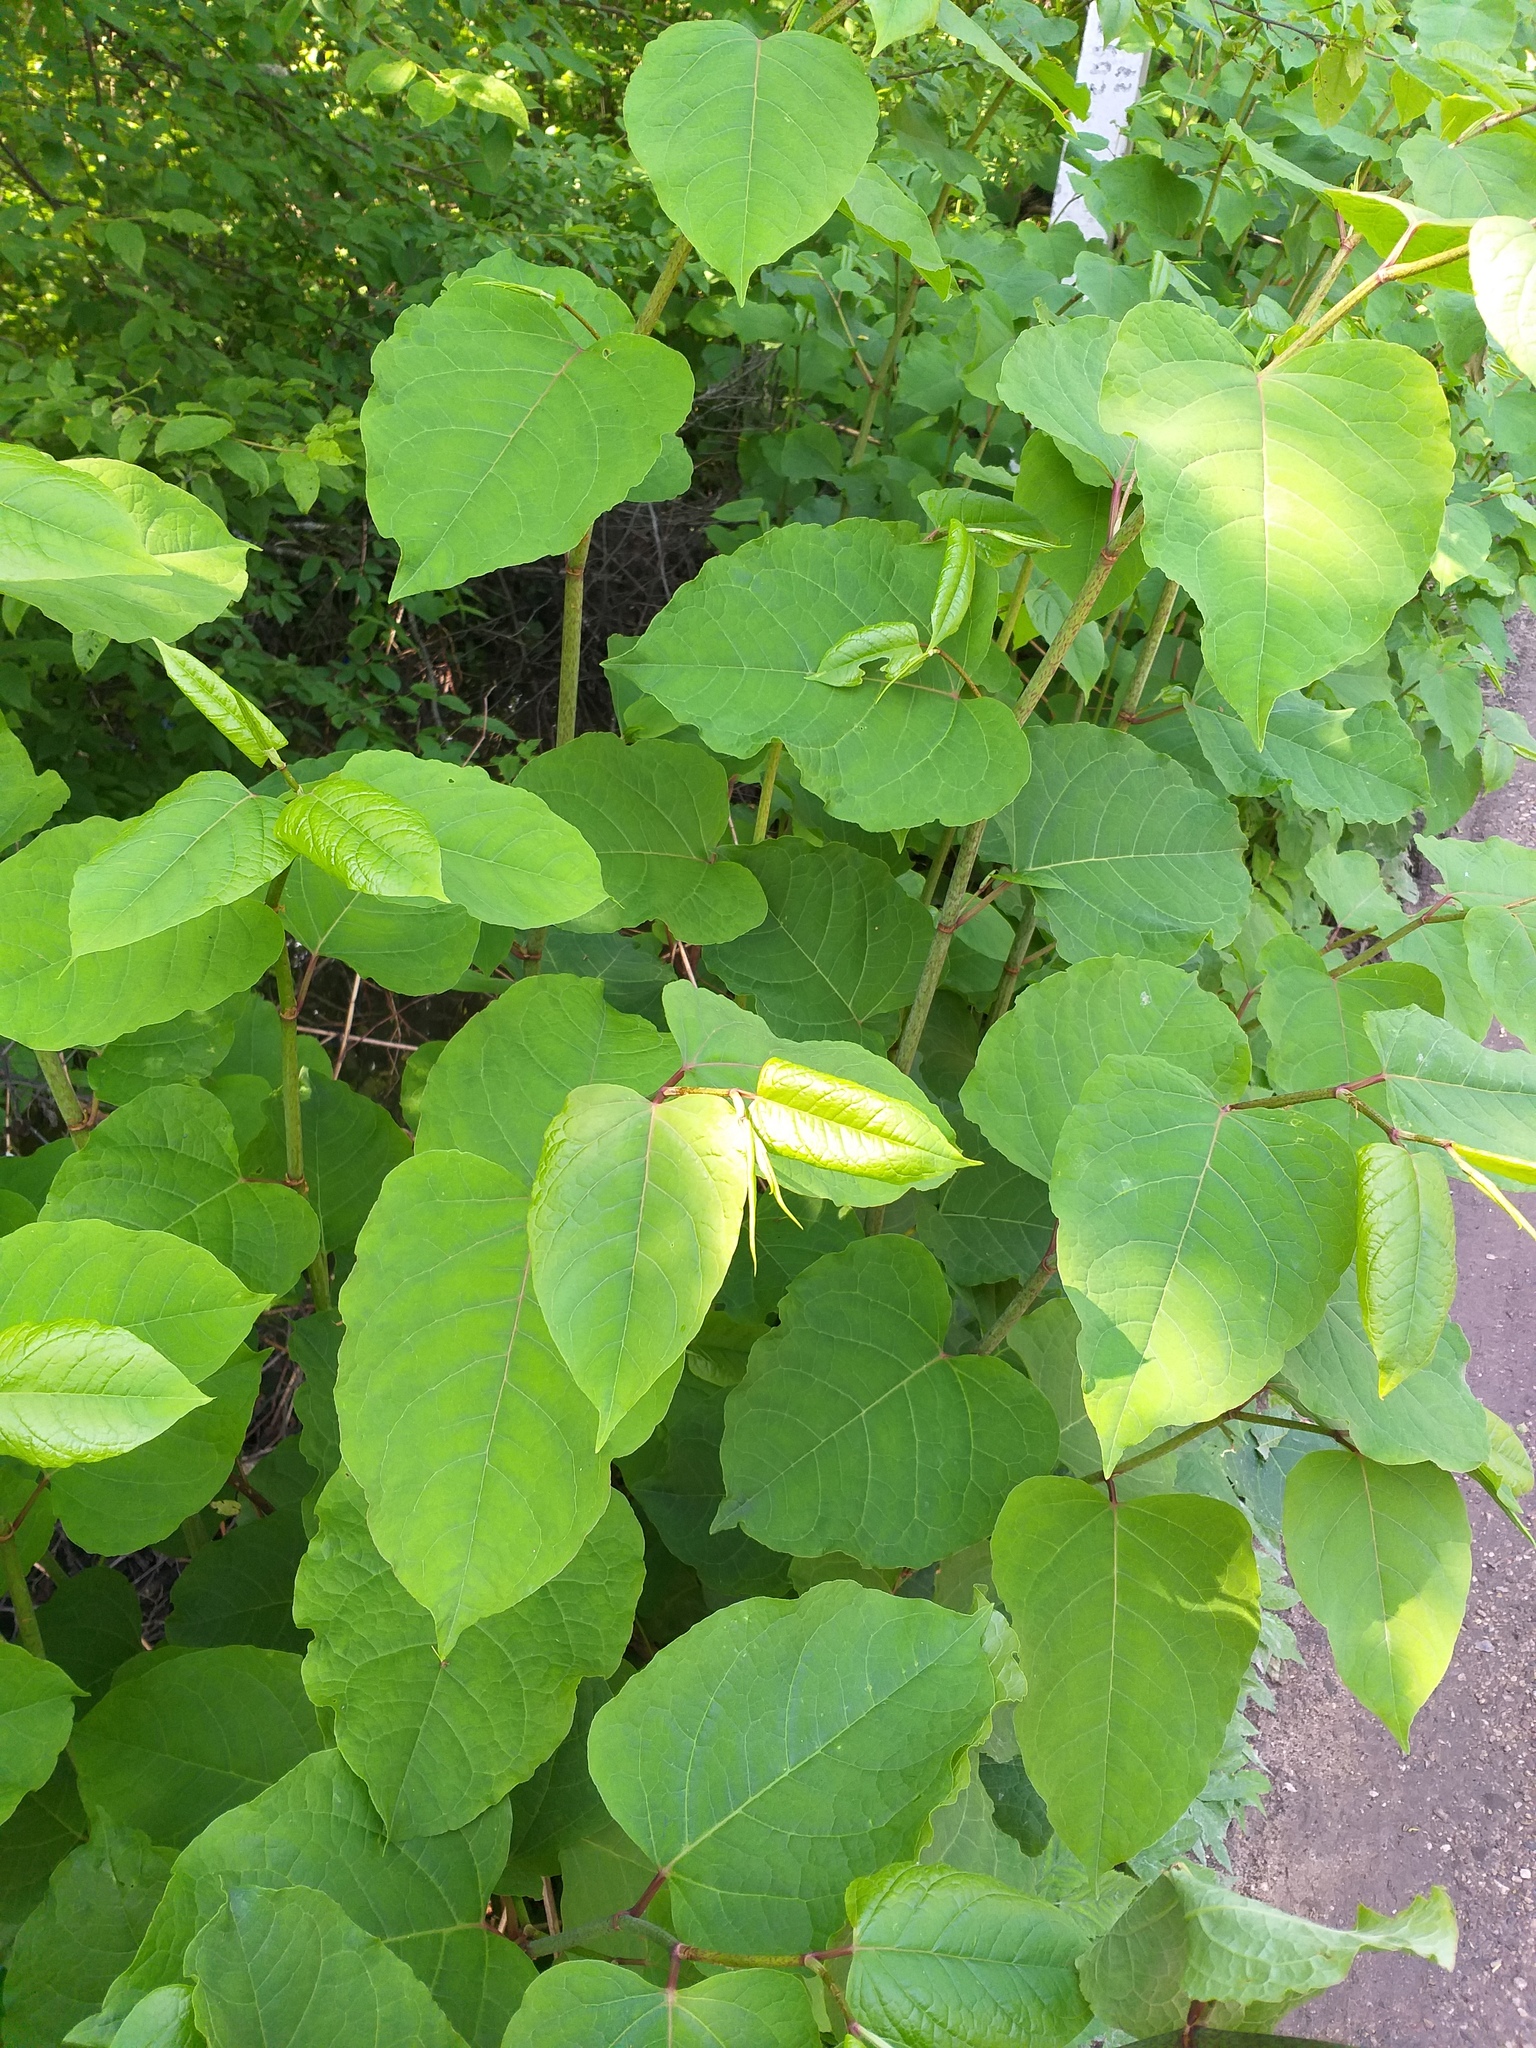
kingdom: Plantae
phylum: Tracheophyta
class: Magnoliopsida
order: Caryophyllales
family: Polygonaceae
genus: Reynoutria
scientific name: Reynoutria bohemica
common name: Bohemian knotweed
